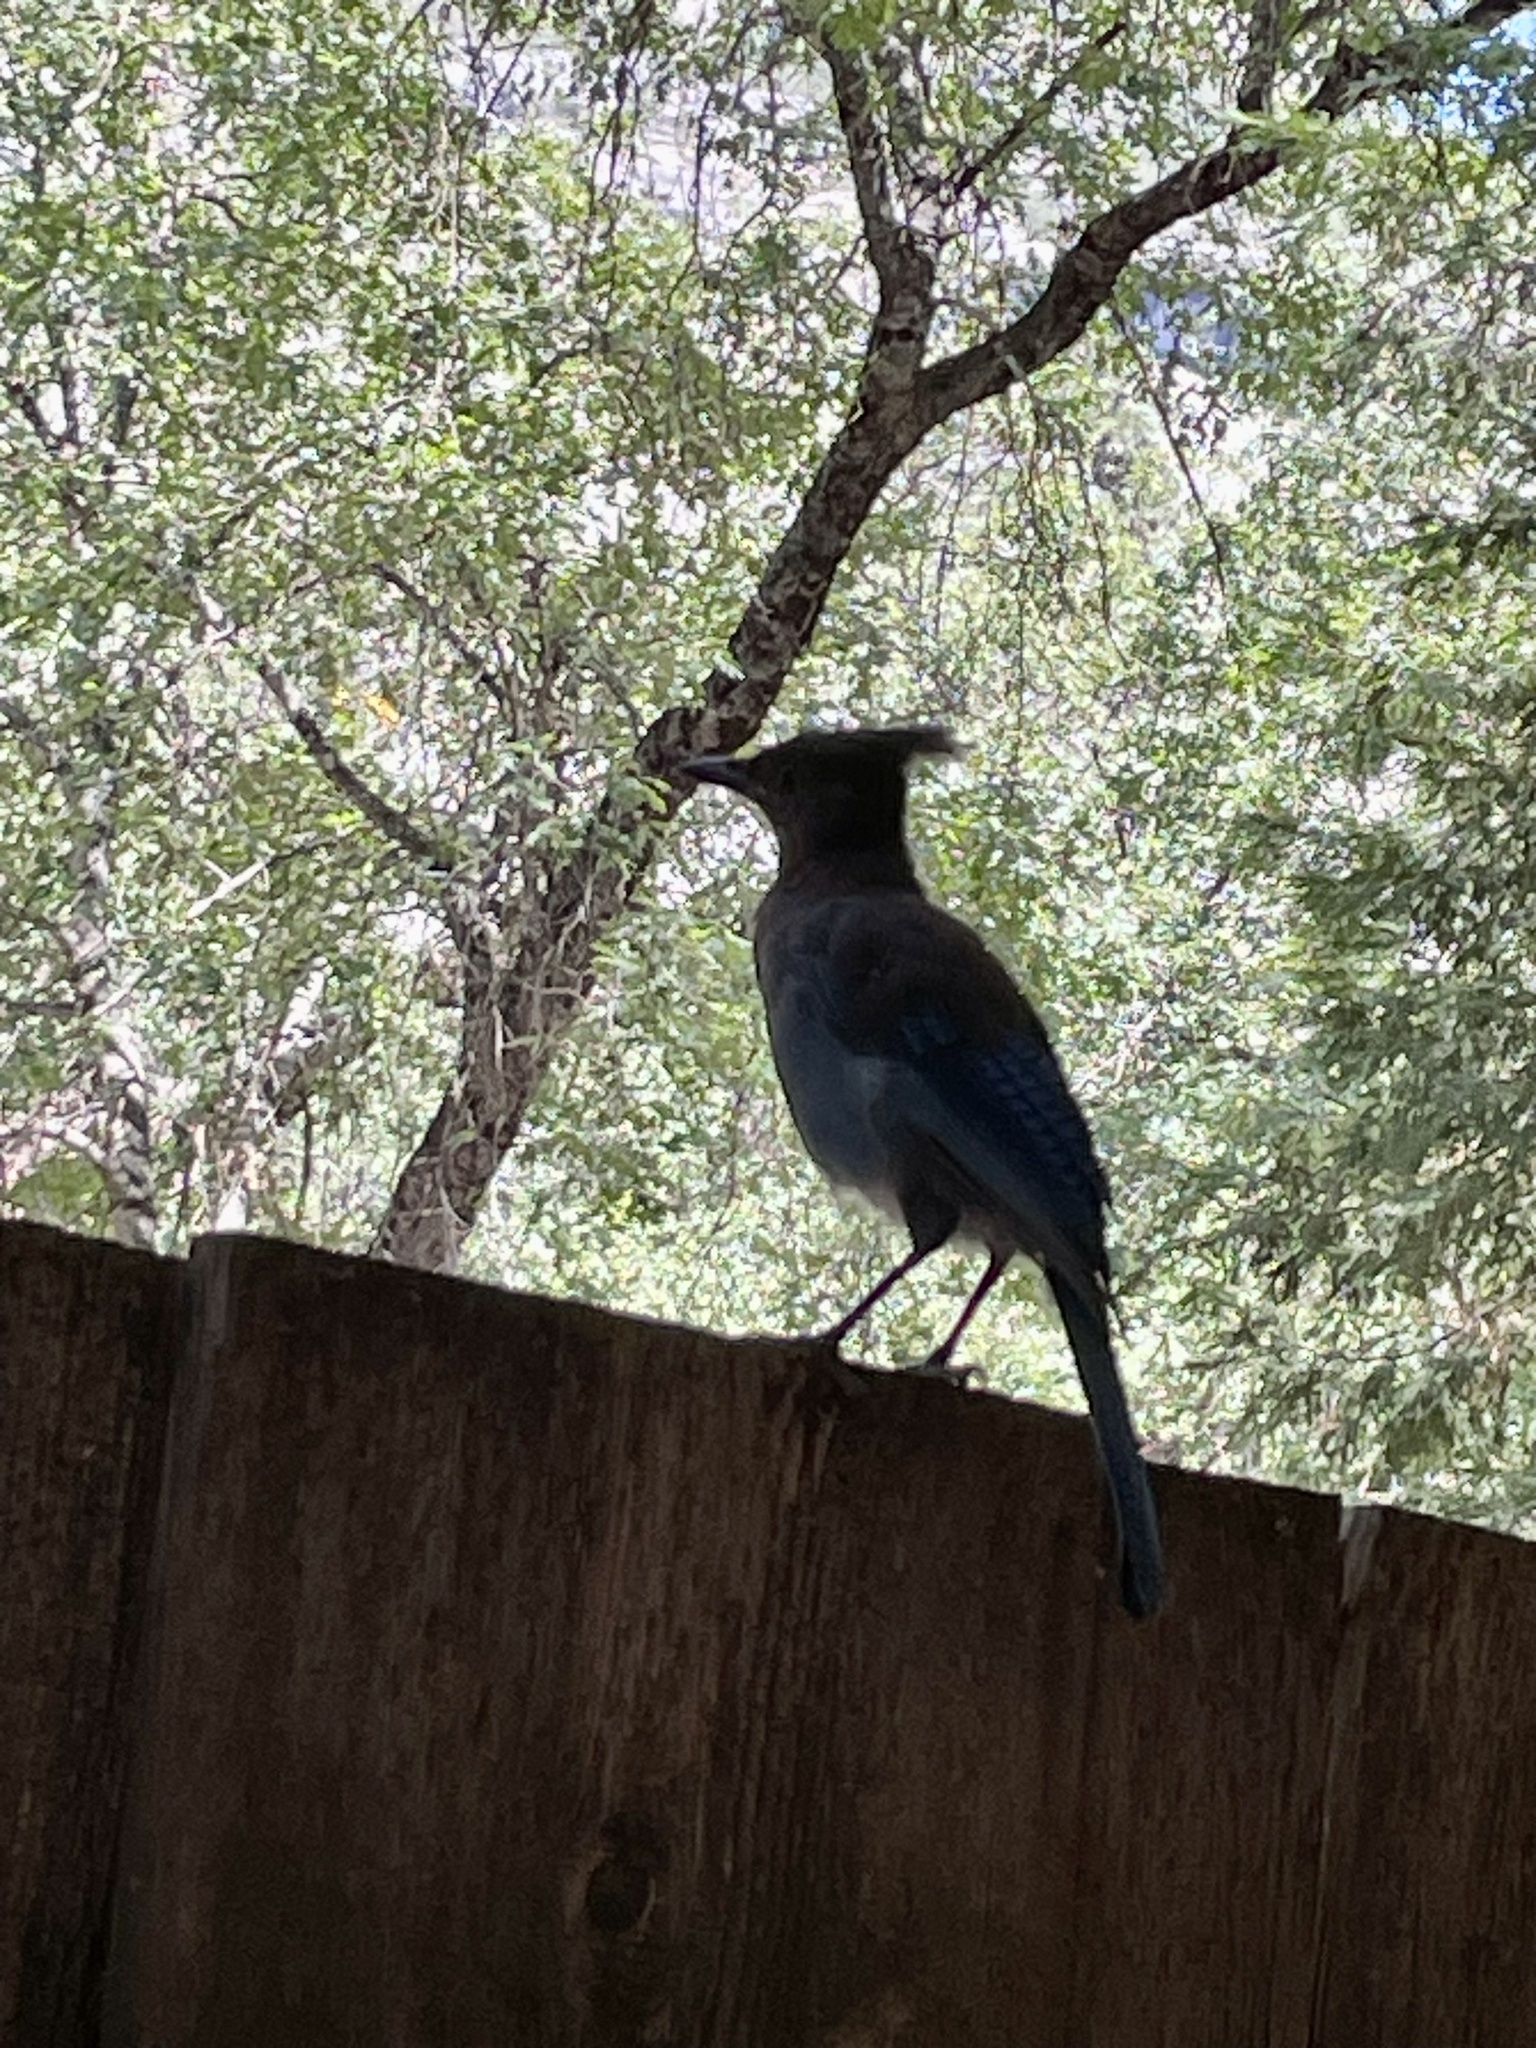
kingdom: Animalia
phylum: Chordata
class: Aves
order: Passeriformes
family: Corvidae
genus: Cyanocitta
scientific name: Cyanocitta stelleri
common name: Steller's jay
